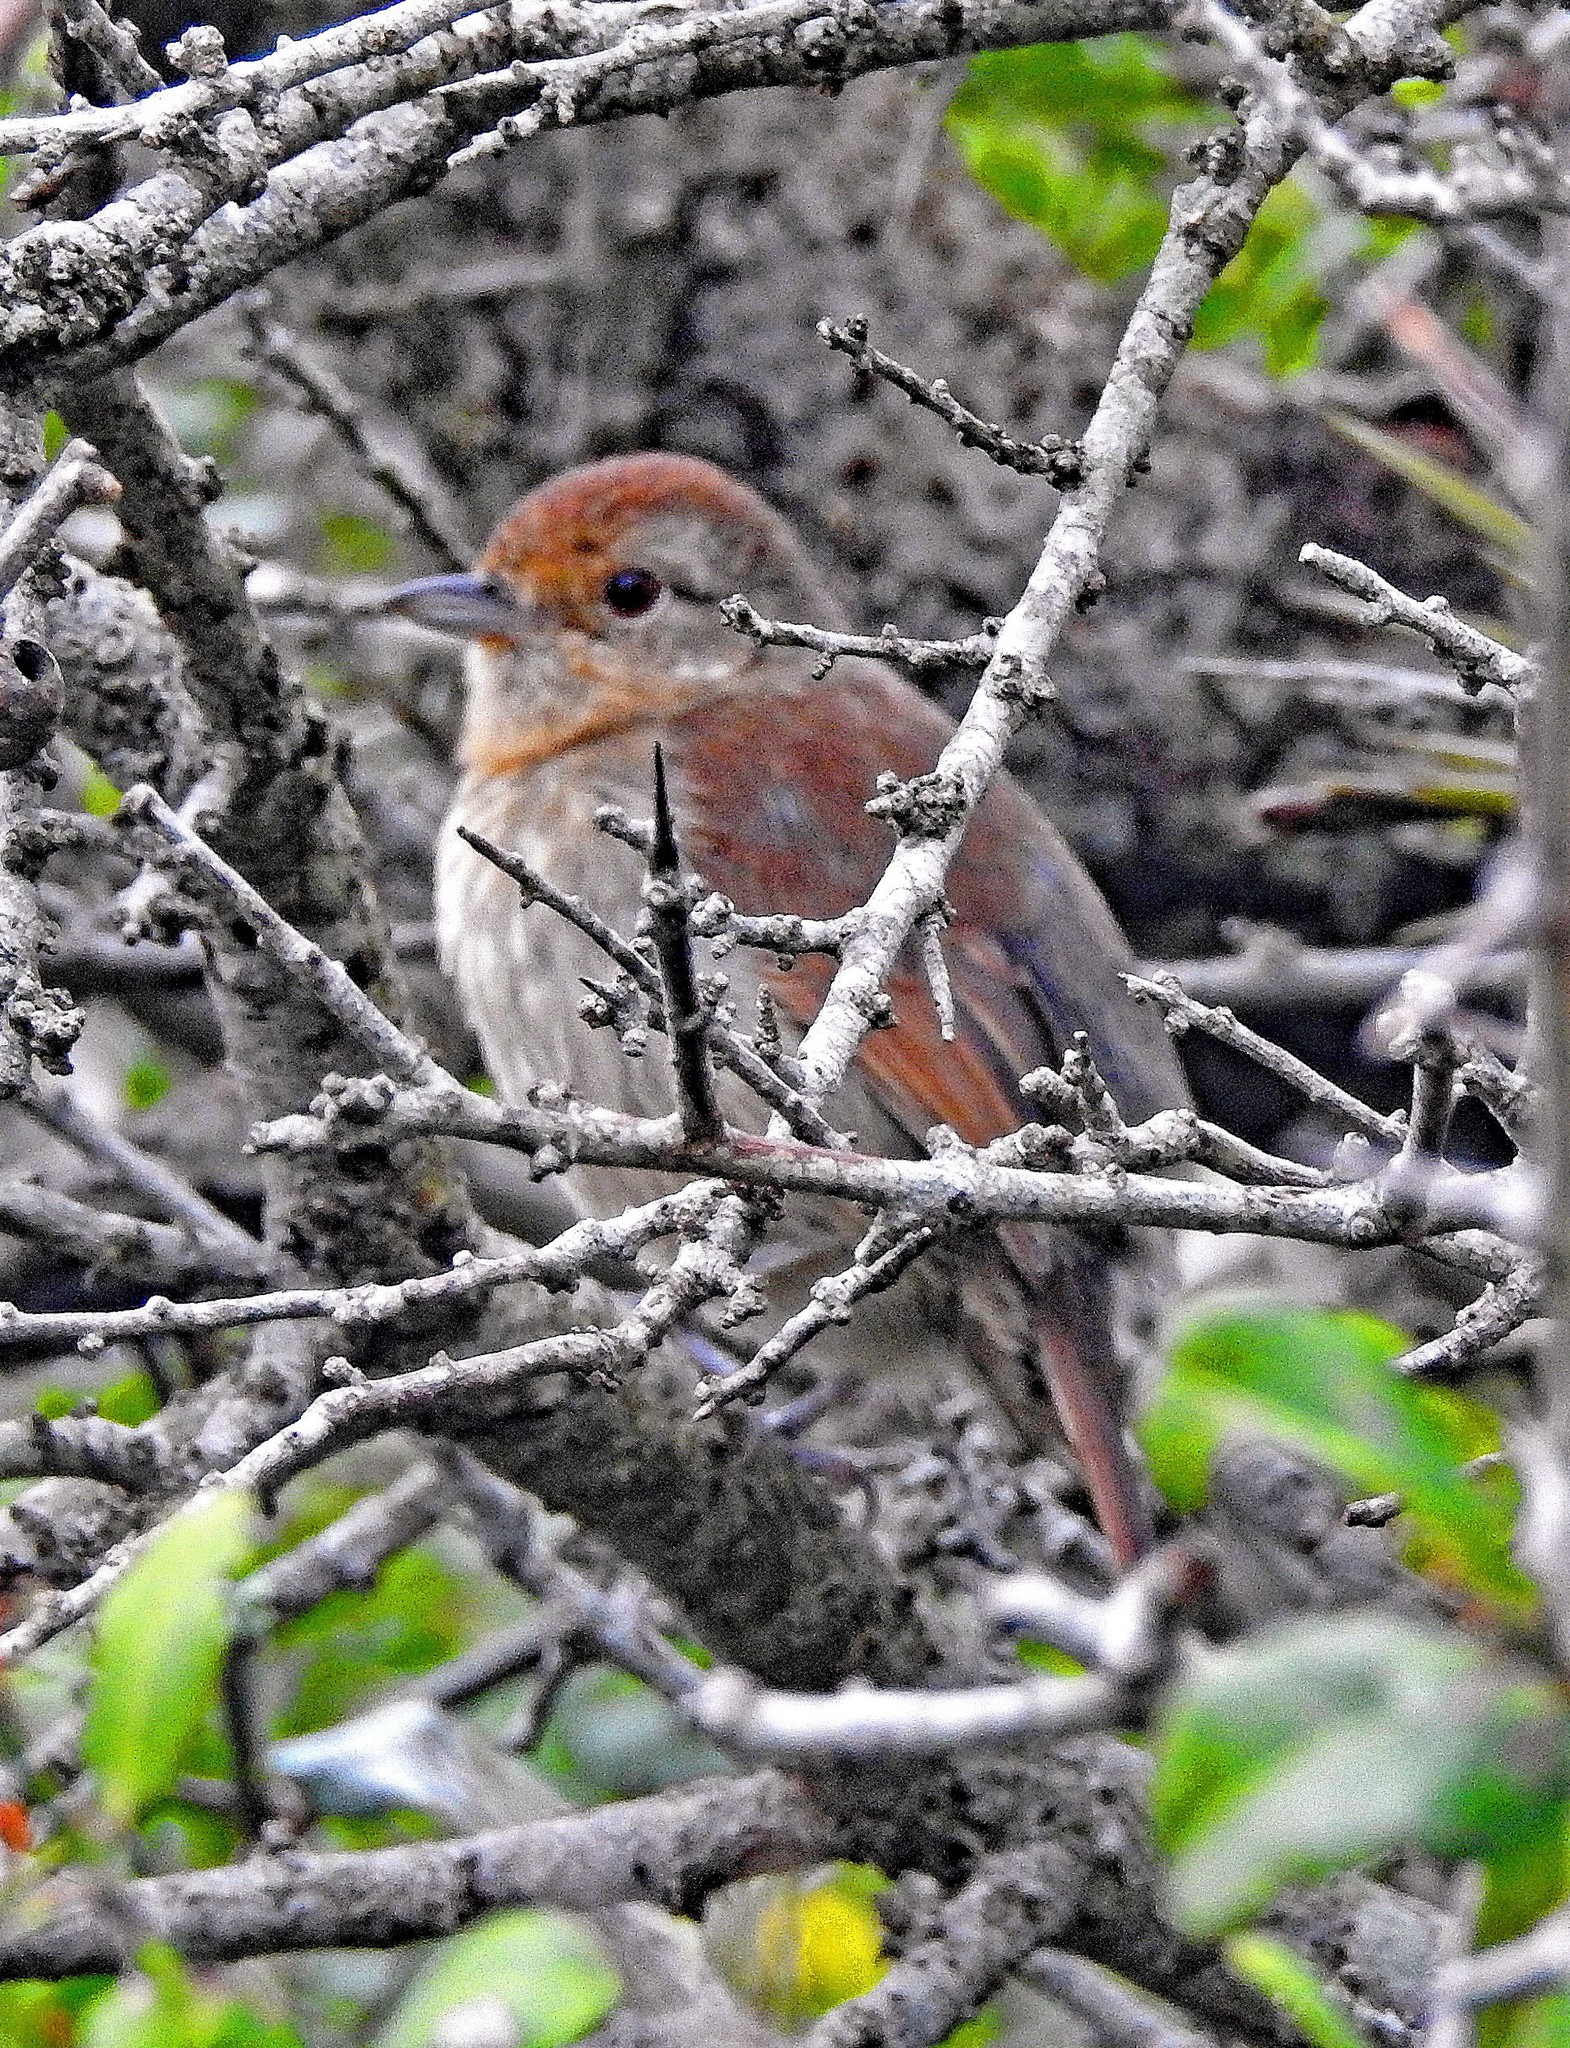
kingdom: Animalia
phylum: Chordata
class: Aves
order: Passeriformes
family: Thamnophilidae
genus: Thamnophilus
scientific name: Thamnophilus ruficapillus
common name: Rufous-capped antshrike
